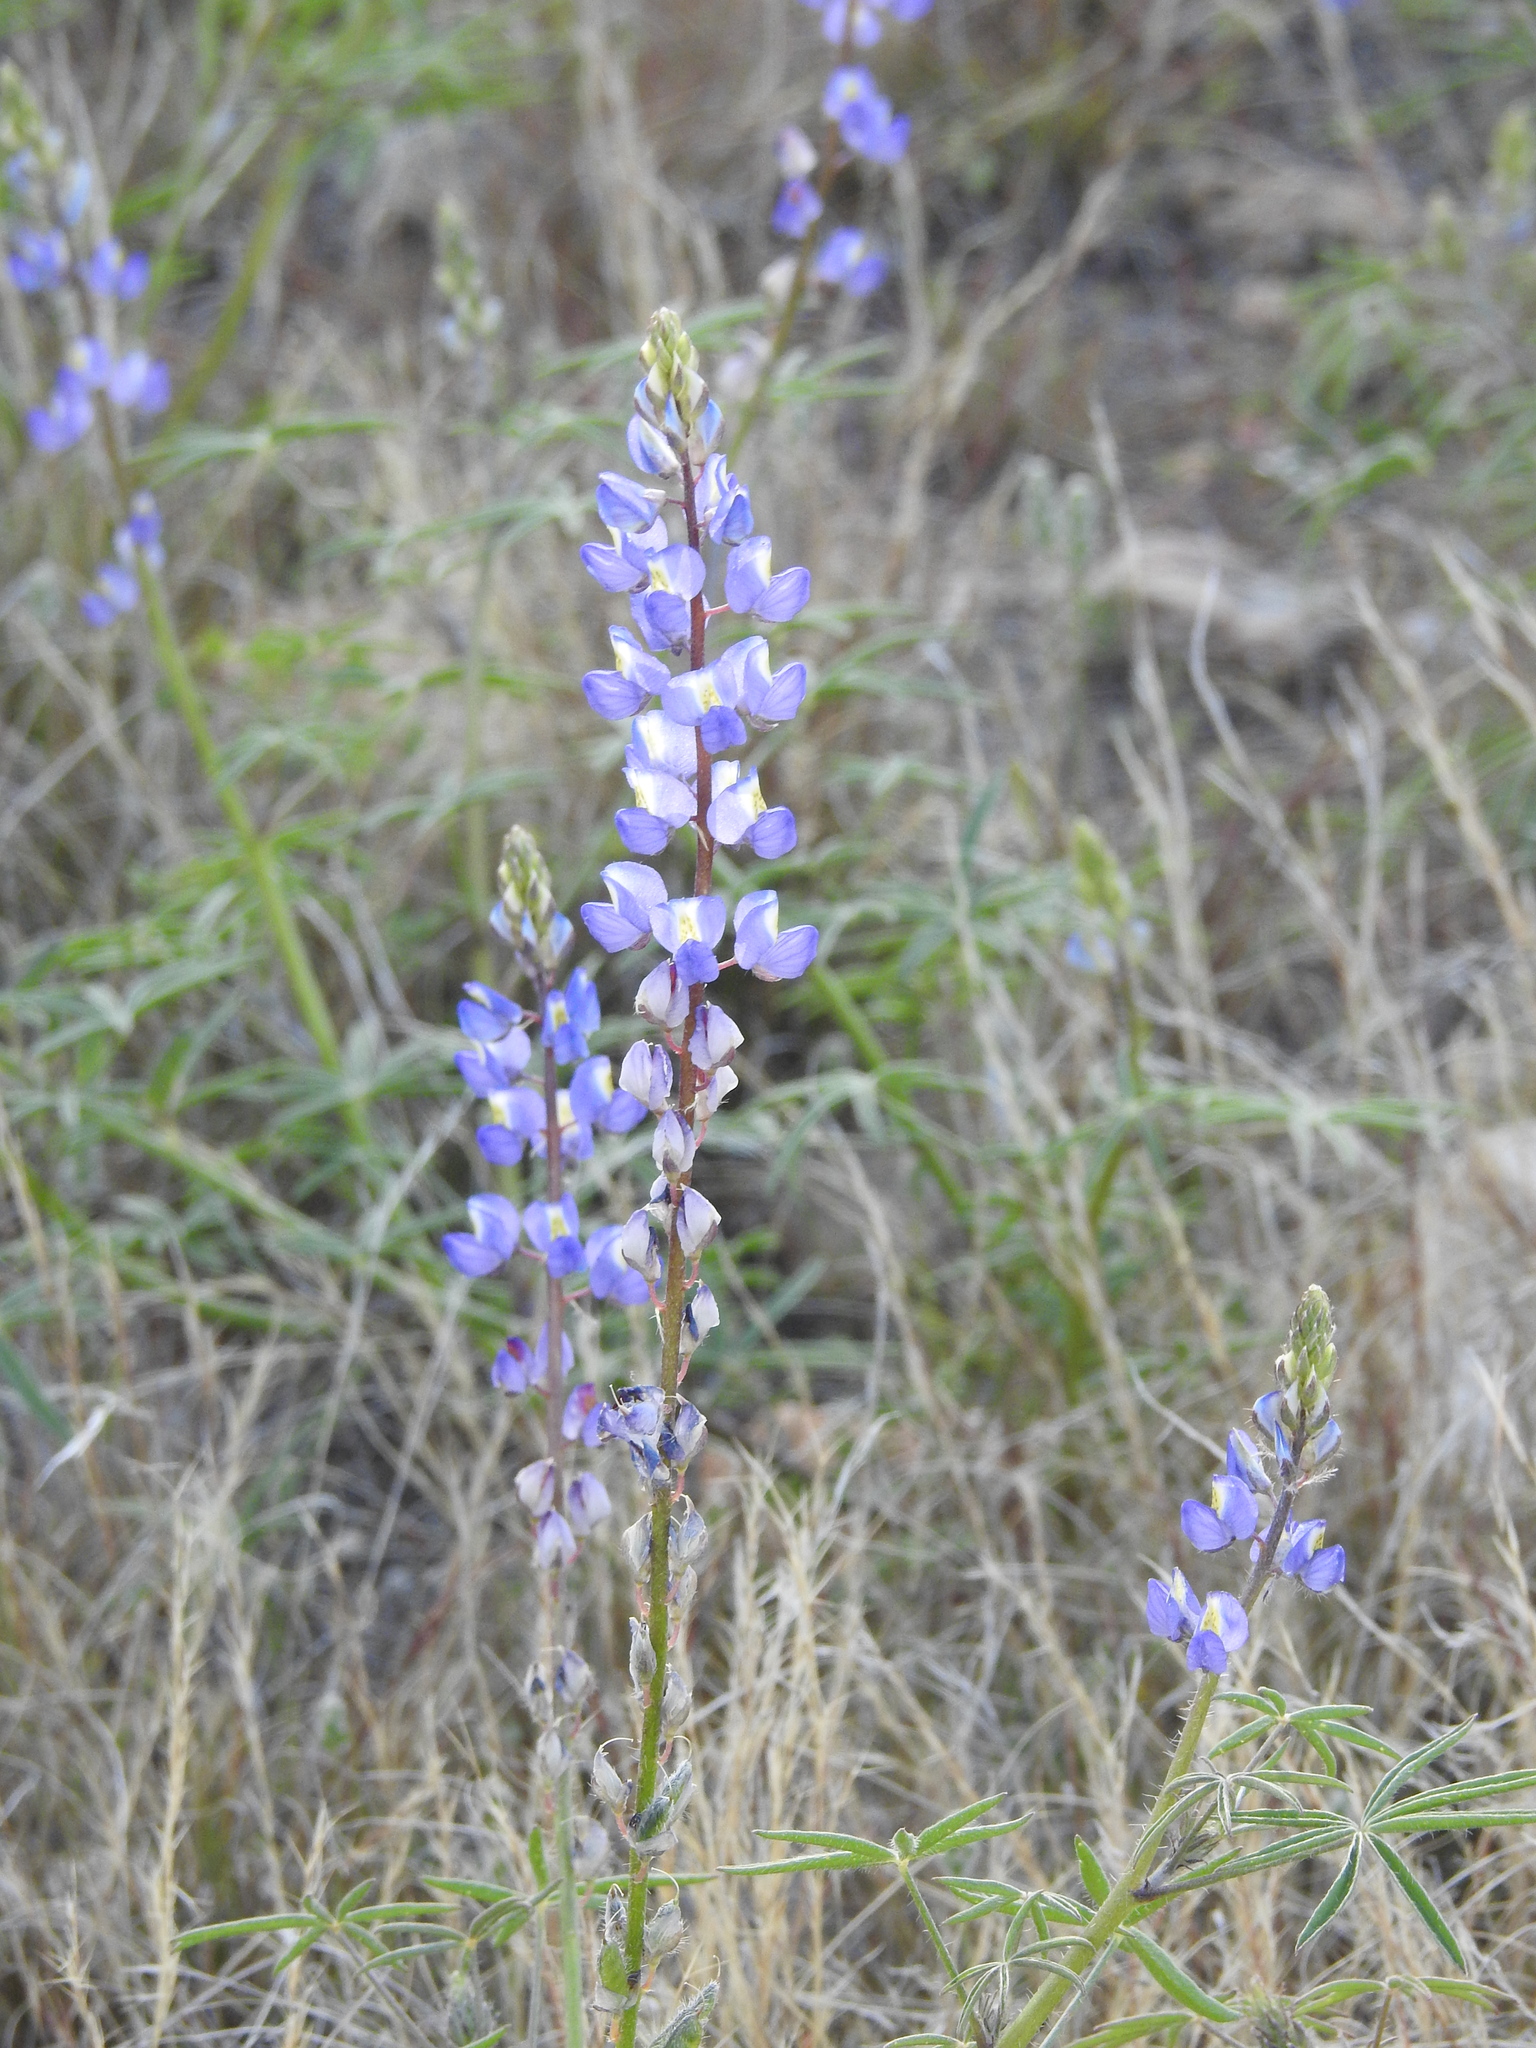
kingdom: Plantae
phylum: Tracheophyta
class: Magnoliopsida
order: Fabales
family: Fabaceae
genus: Lupinus
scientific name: Lupinus sparsiflorus
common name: Coulter's lupine
